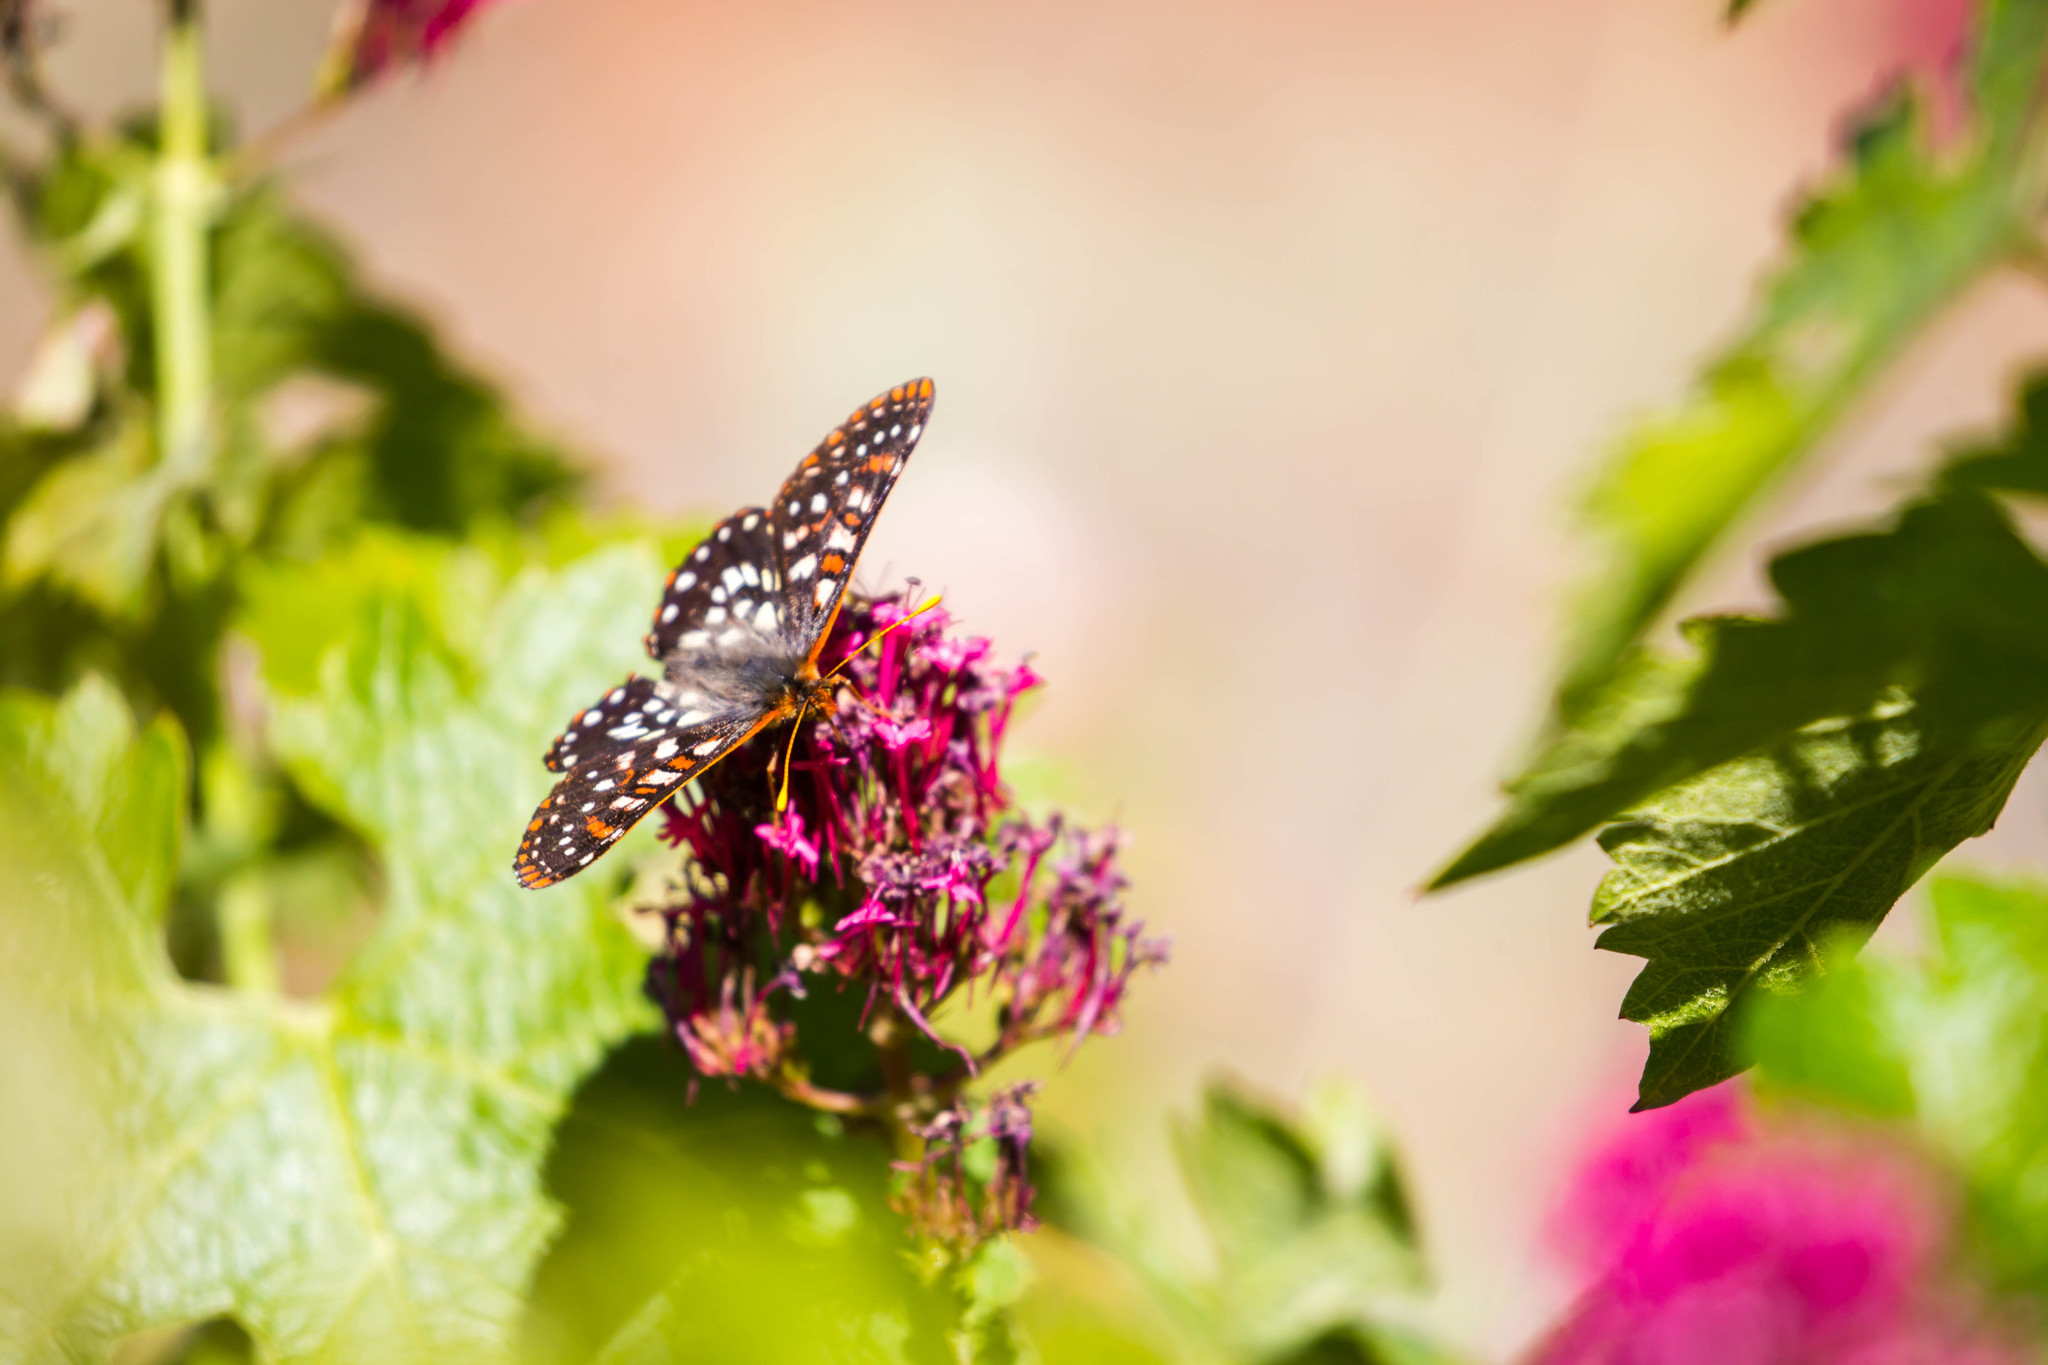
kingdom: Animalia
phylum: Arthropoda
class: Insecta
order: Lepidoptera
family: Nymphalidae
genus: Occidryas
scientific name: Occidryas chalcedona
